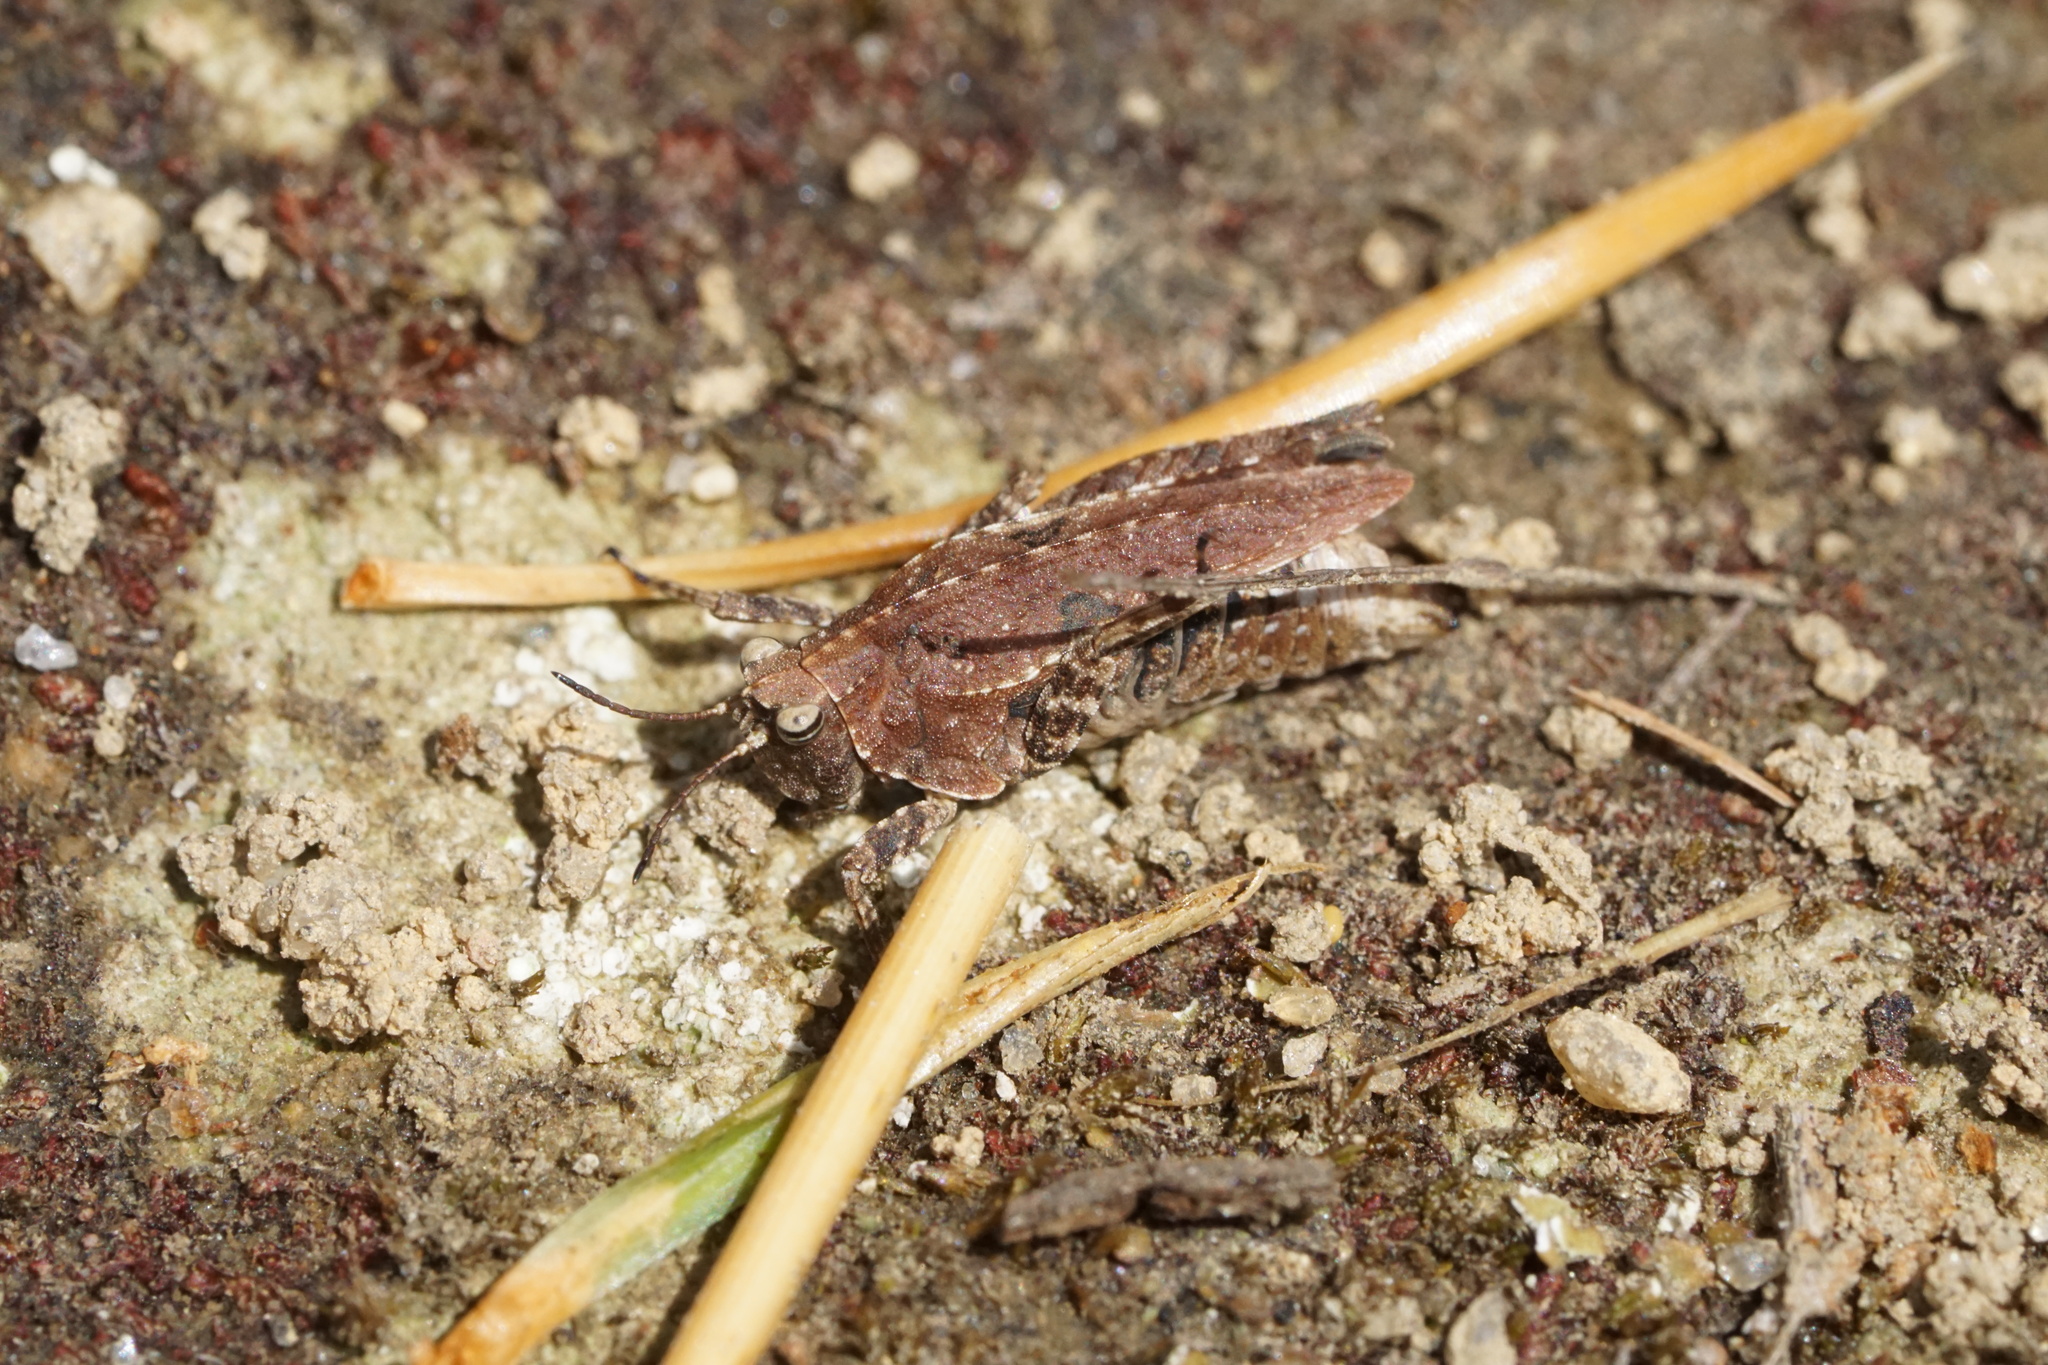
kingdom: Animalia
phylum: Arthropoda
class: Insecta
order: Orthoptera
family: Tetrigidae
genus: Nomotettix
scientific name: Nomotettix cristatus
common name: Crested grouse locust
